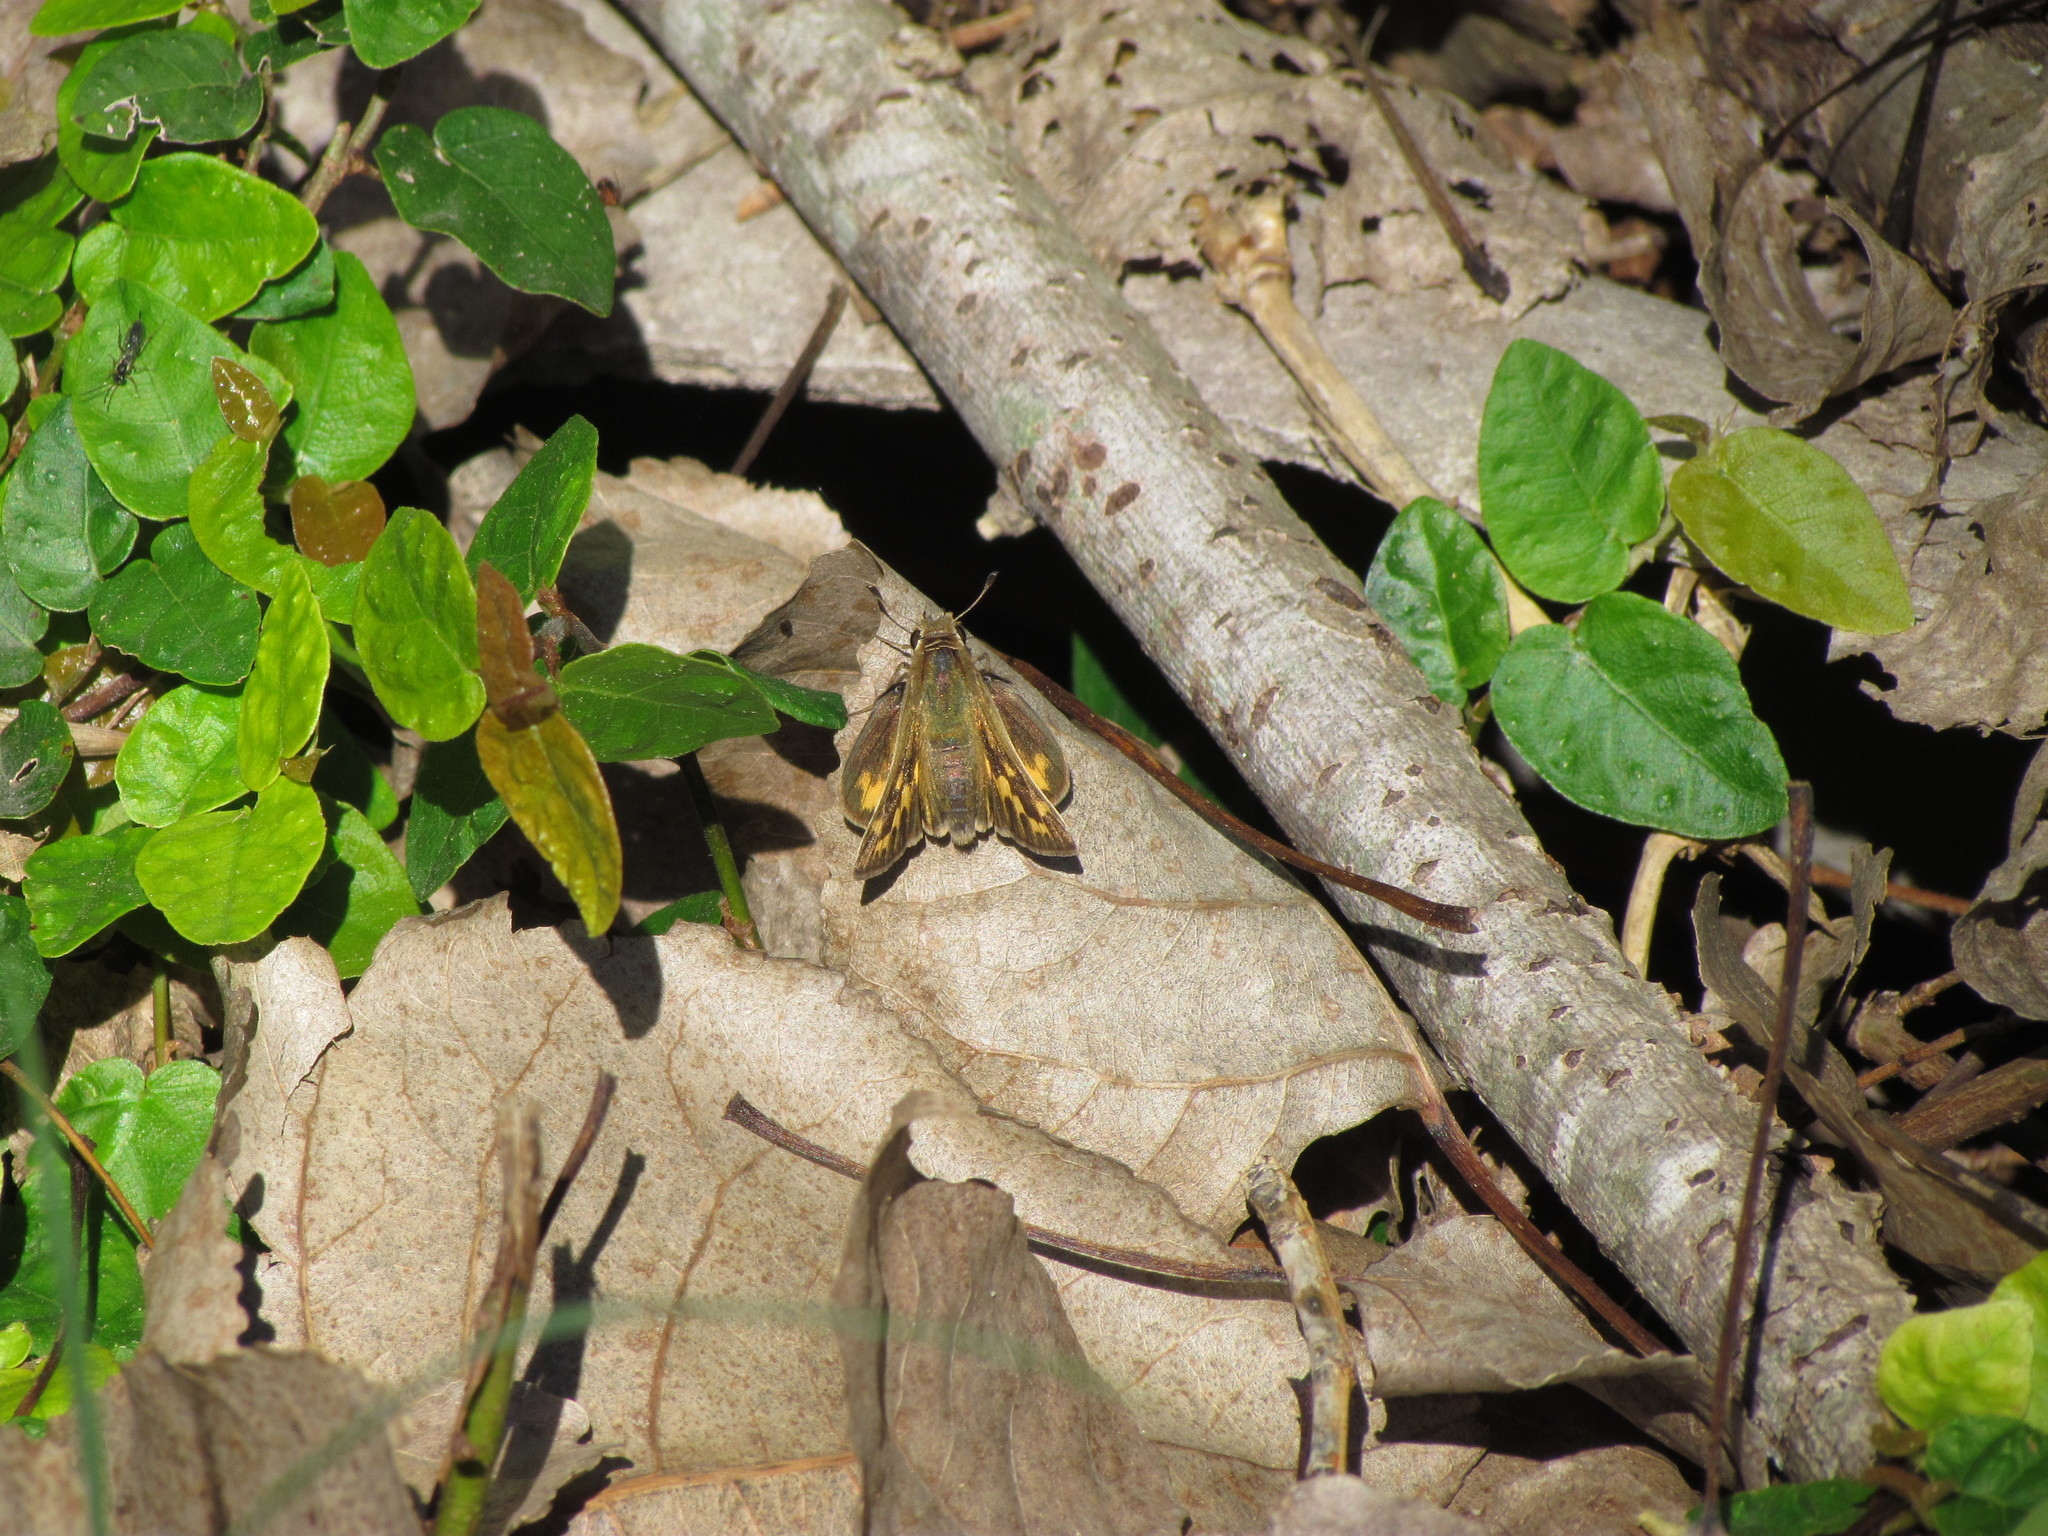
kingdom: Animalia
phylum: Arthropoda
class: Insecta
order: Lepidoptera
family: Hesperiidae
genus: Hylephila
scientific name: Hylephila phyleus
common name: Fiery skipper
